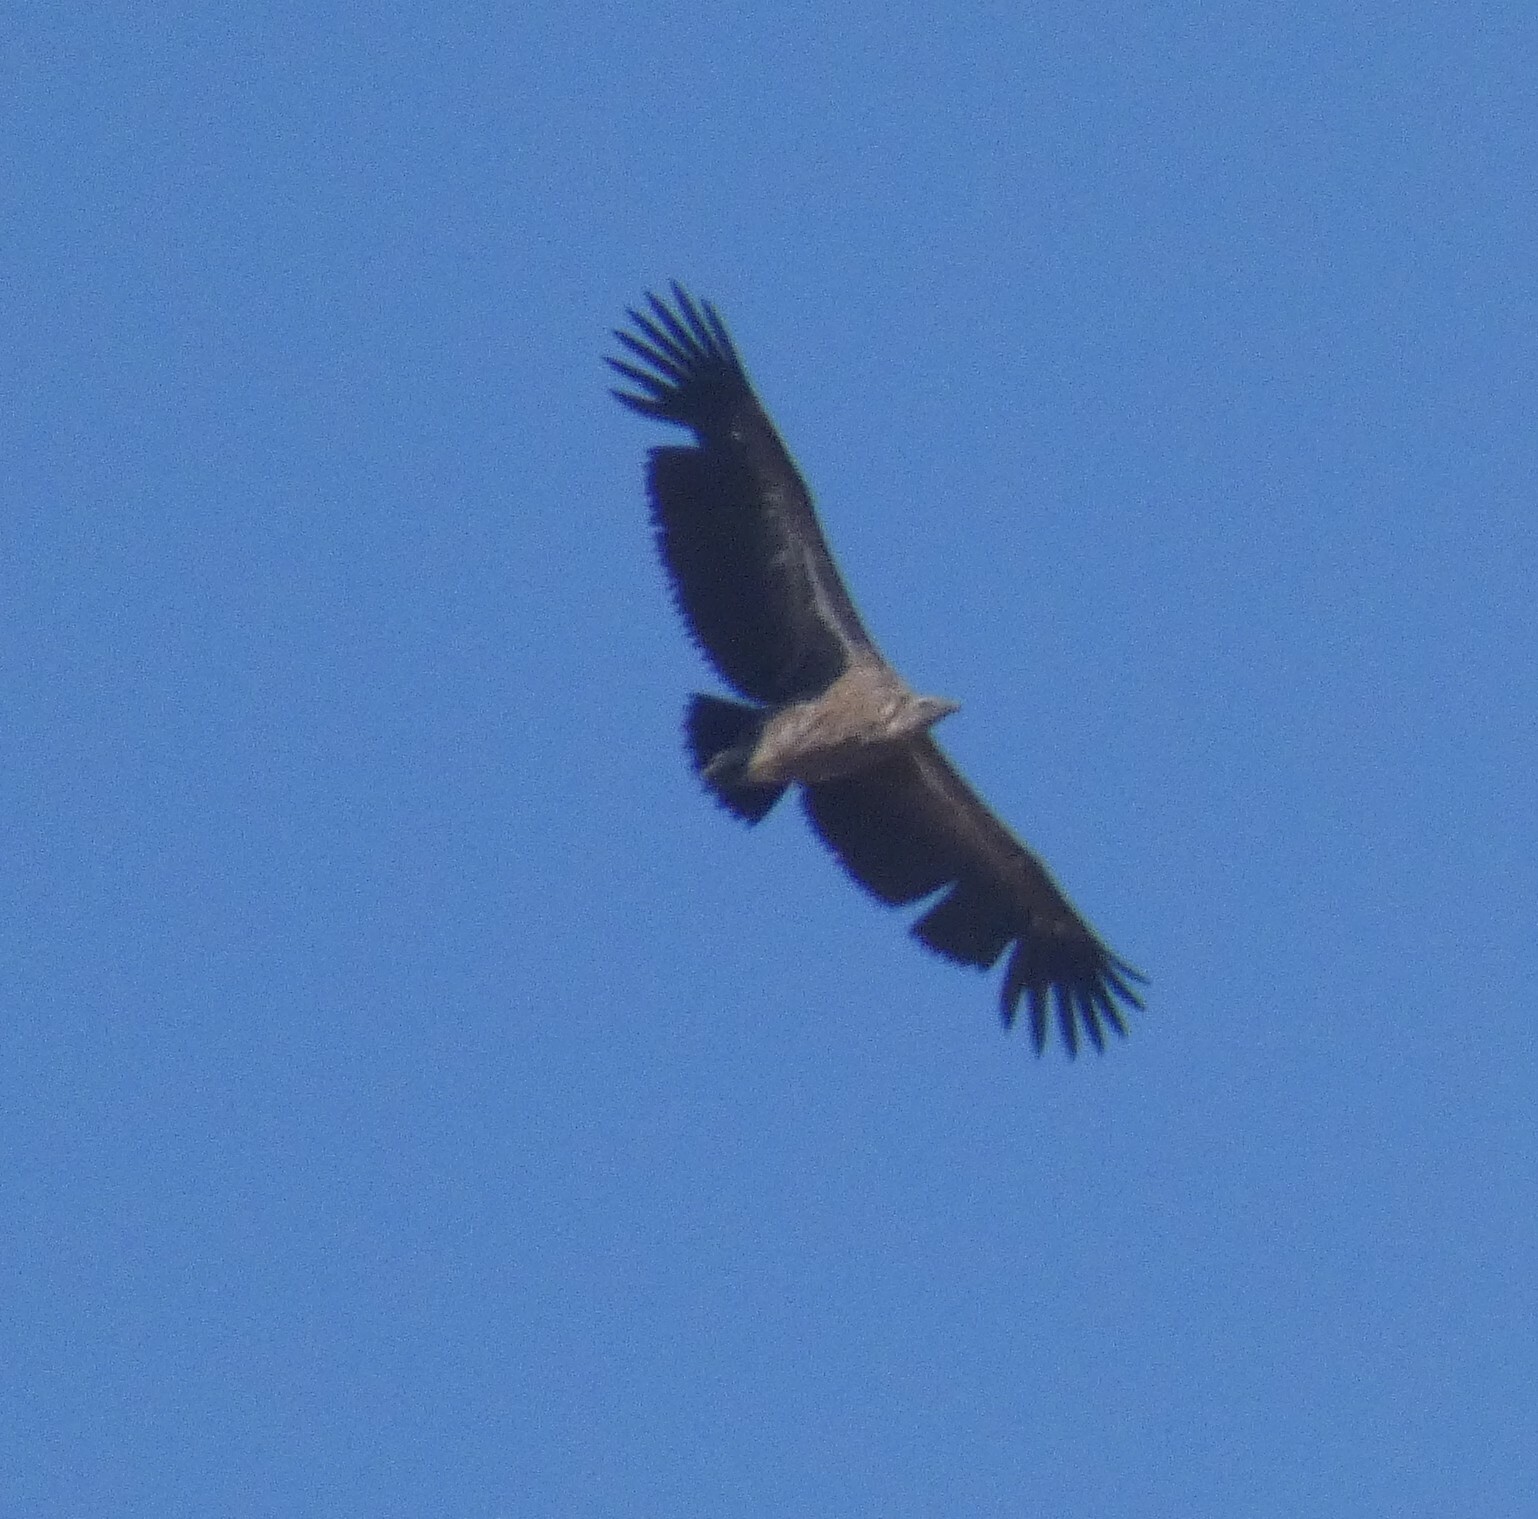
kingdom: Animalia
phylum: Chordata
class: Aves
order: Accipitriformes
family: Accipitridae
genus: Gyps
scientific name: Gyps africanus
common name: White-backed vulture
